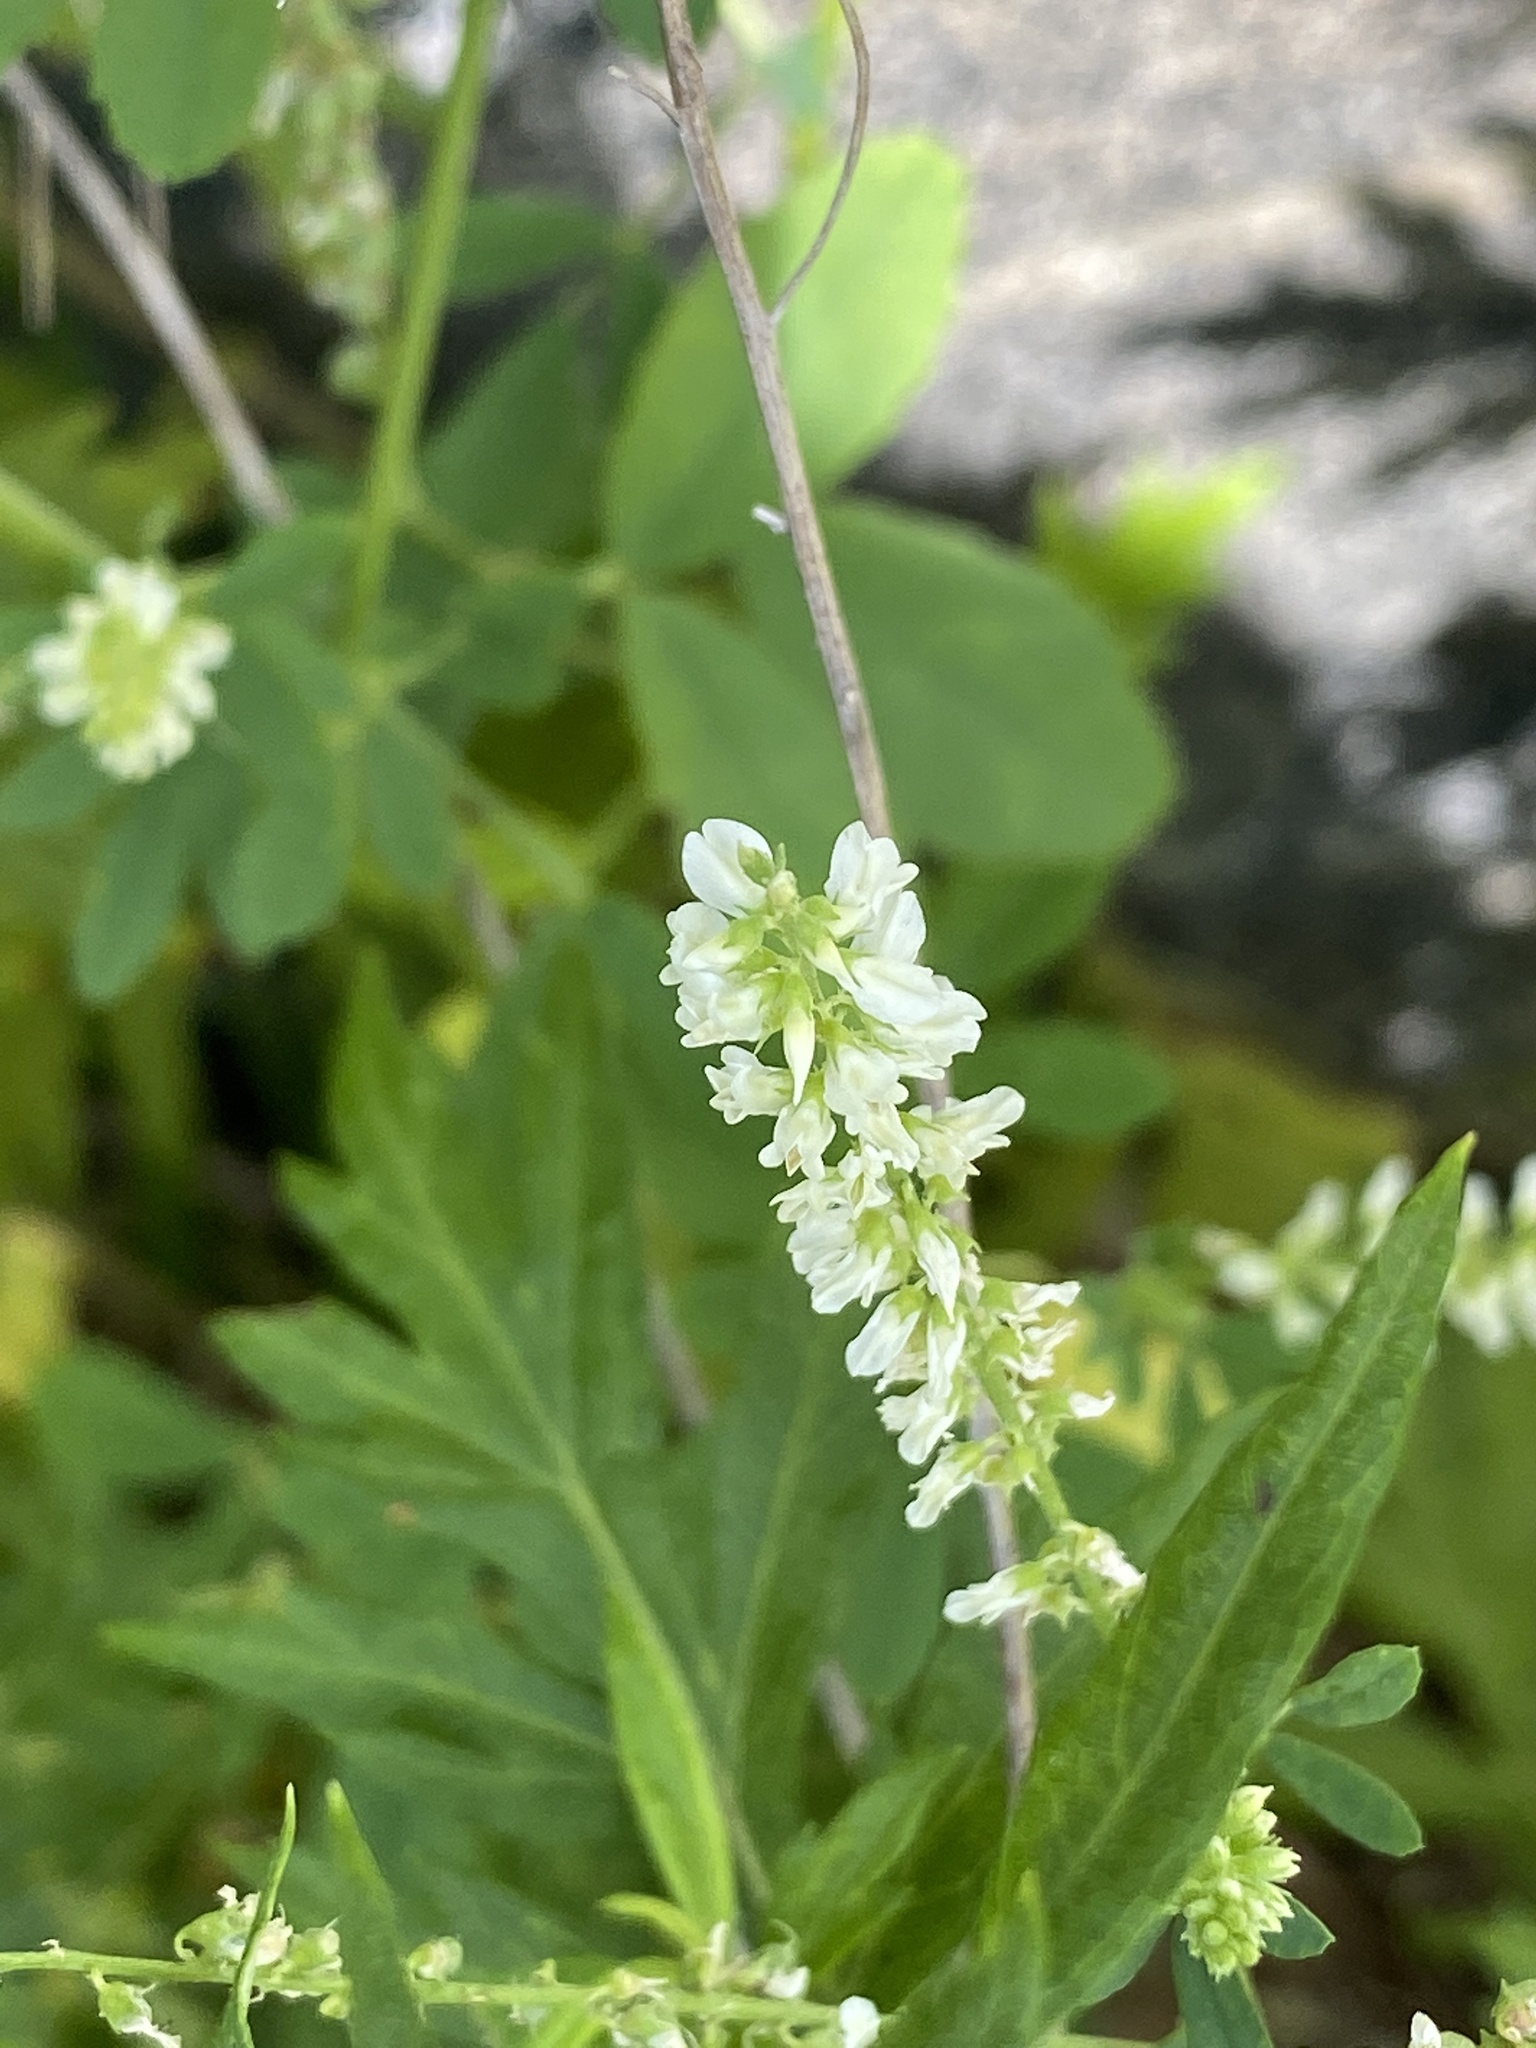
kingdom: Plantae
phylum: Tracheophyta
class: Magnoliopsida
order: Fabales
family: Fabaceae
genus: Melilotus
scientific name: Melilotus albus
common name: White melilot
